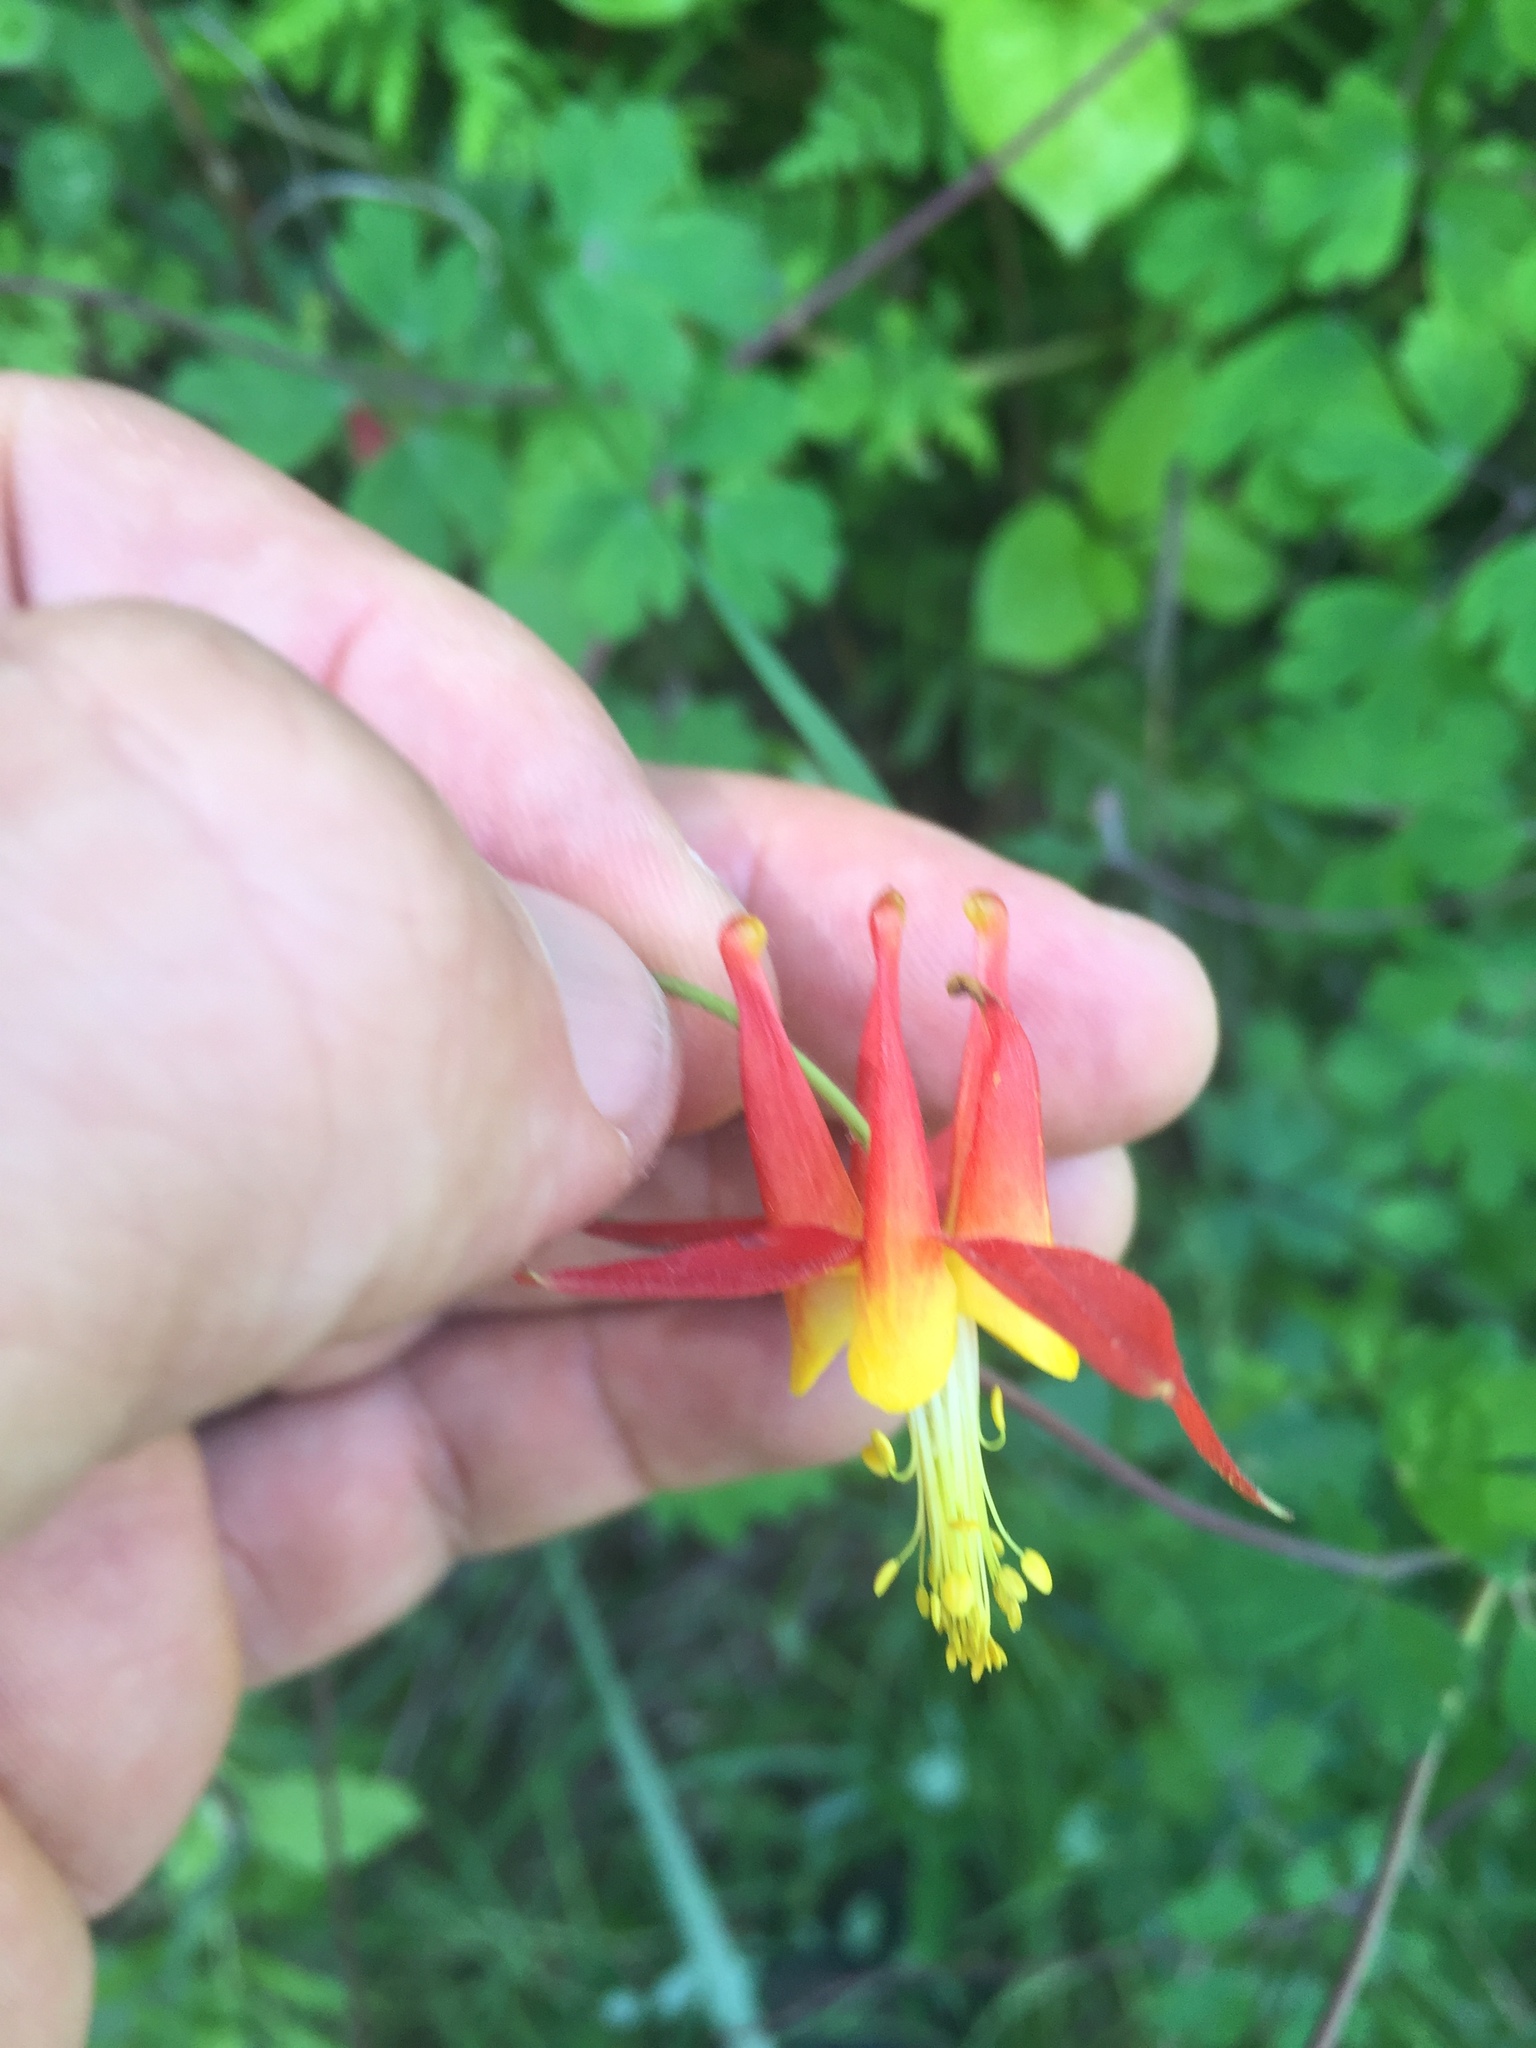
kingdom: Plantae
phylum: Tracheophyta
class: Magnoliopsida
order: Ranunculales
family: Ranunculaceae
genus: Aquilegia
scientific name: Aquilegia formosa
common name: Sitka columbine
